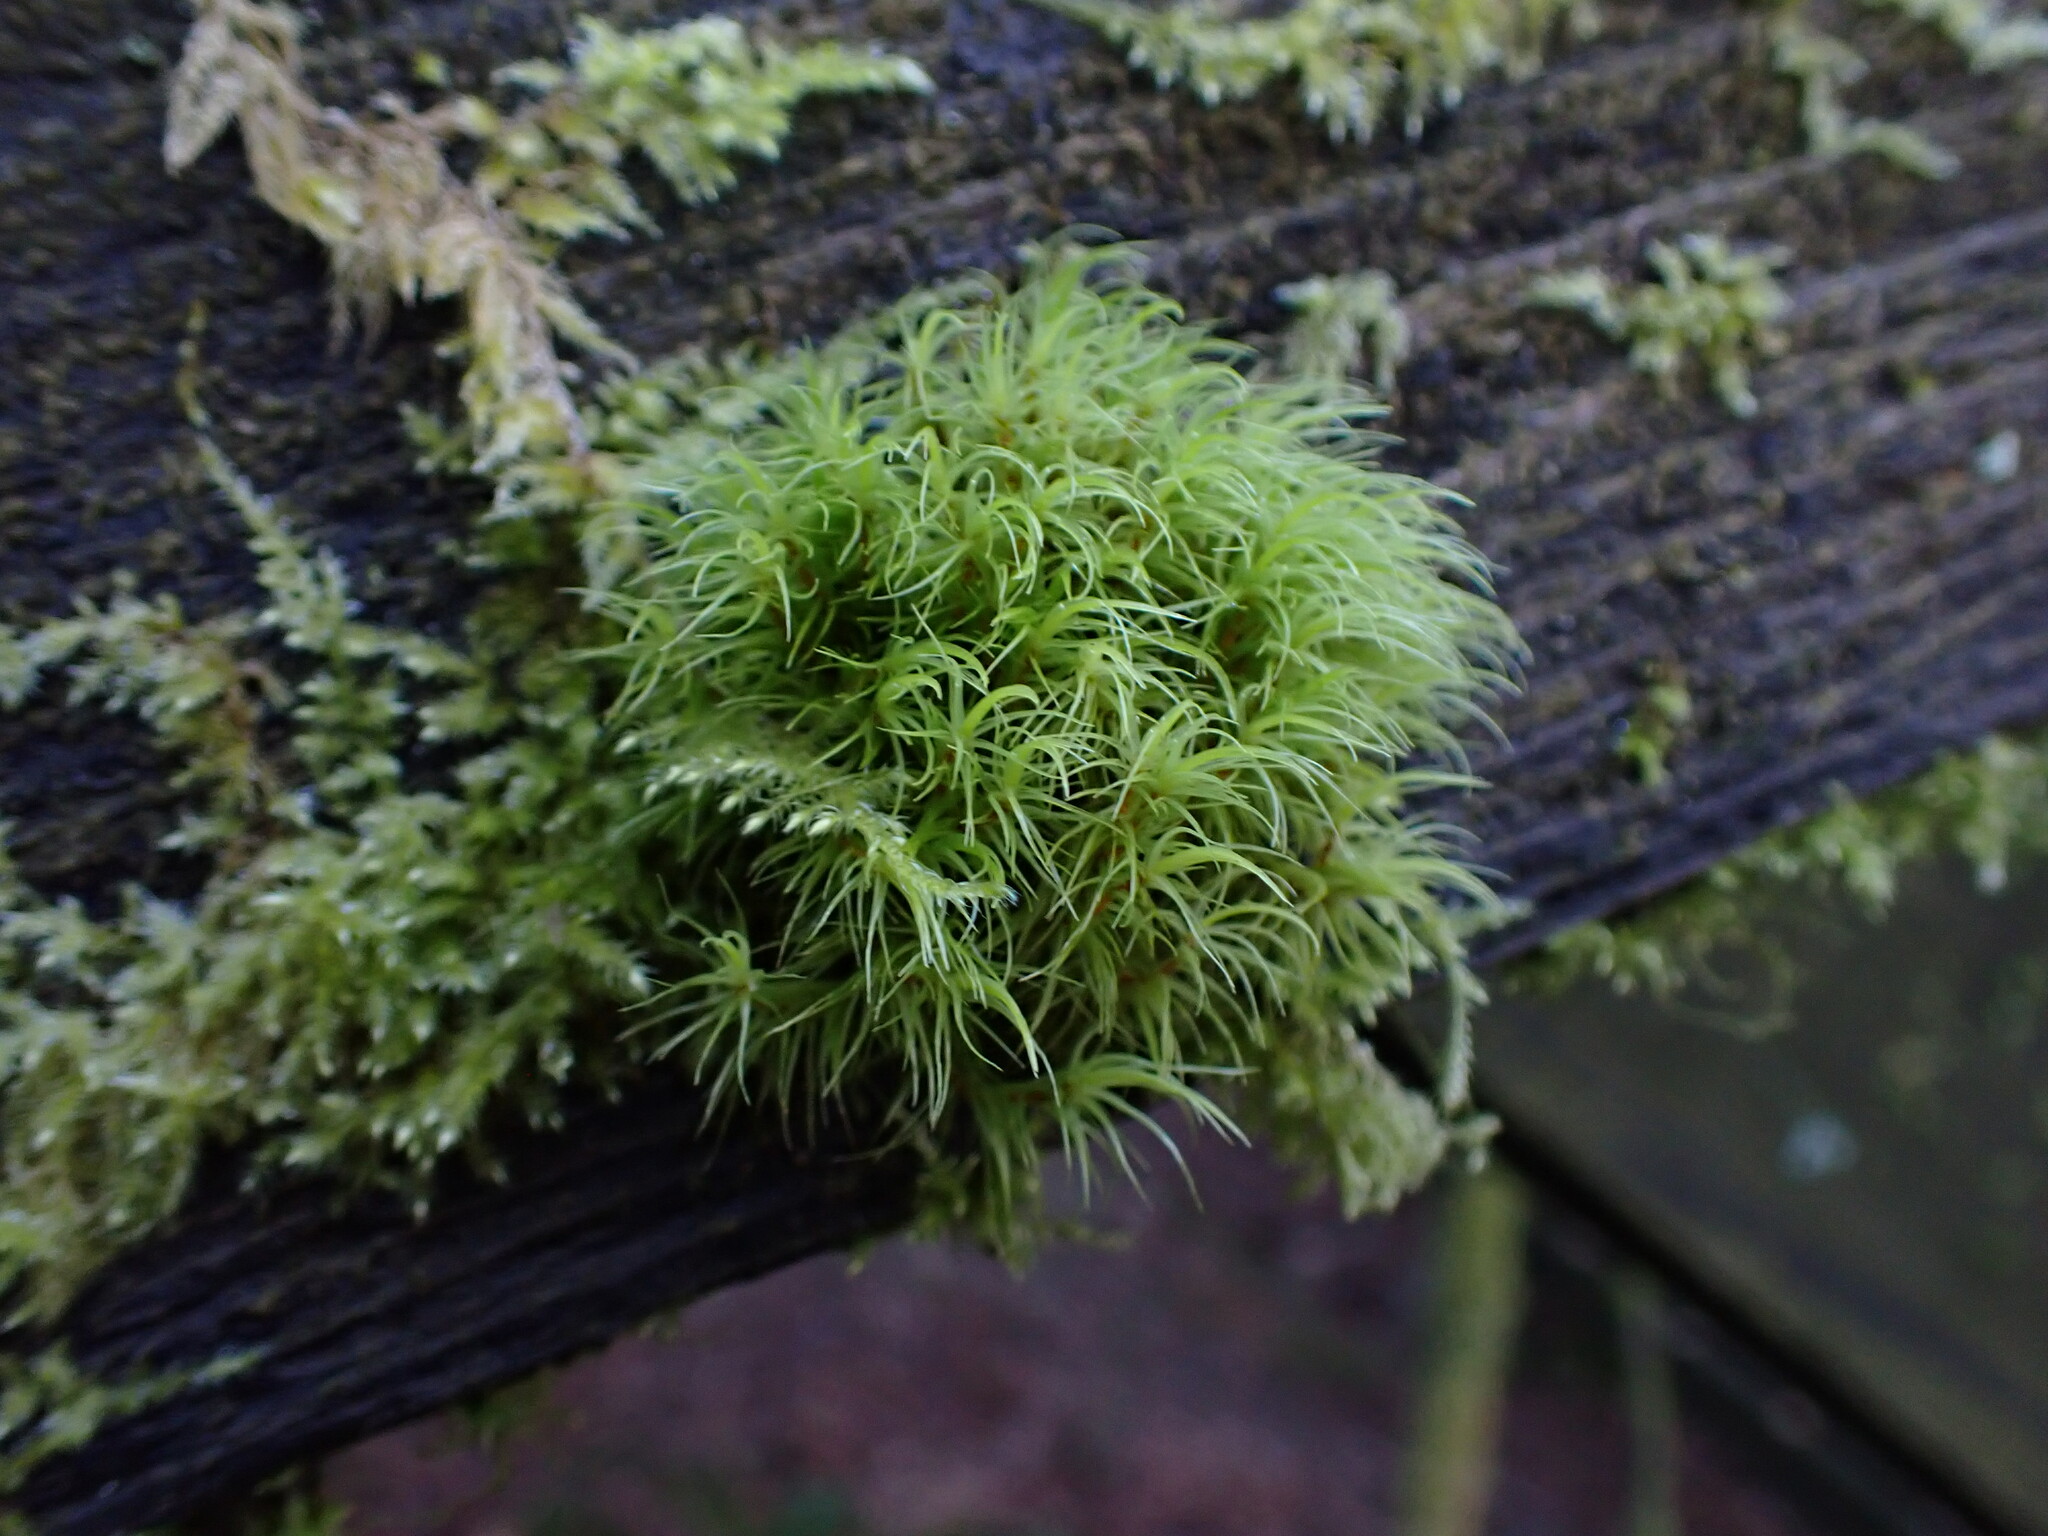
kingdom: Plantae
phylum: Bryophyta
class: Bryopsida
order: Dicranales
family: Dicranaceae
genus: Dicranum
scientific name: Dicranum fuscescens
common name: Curly heron's-bill moss
